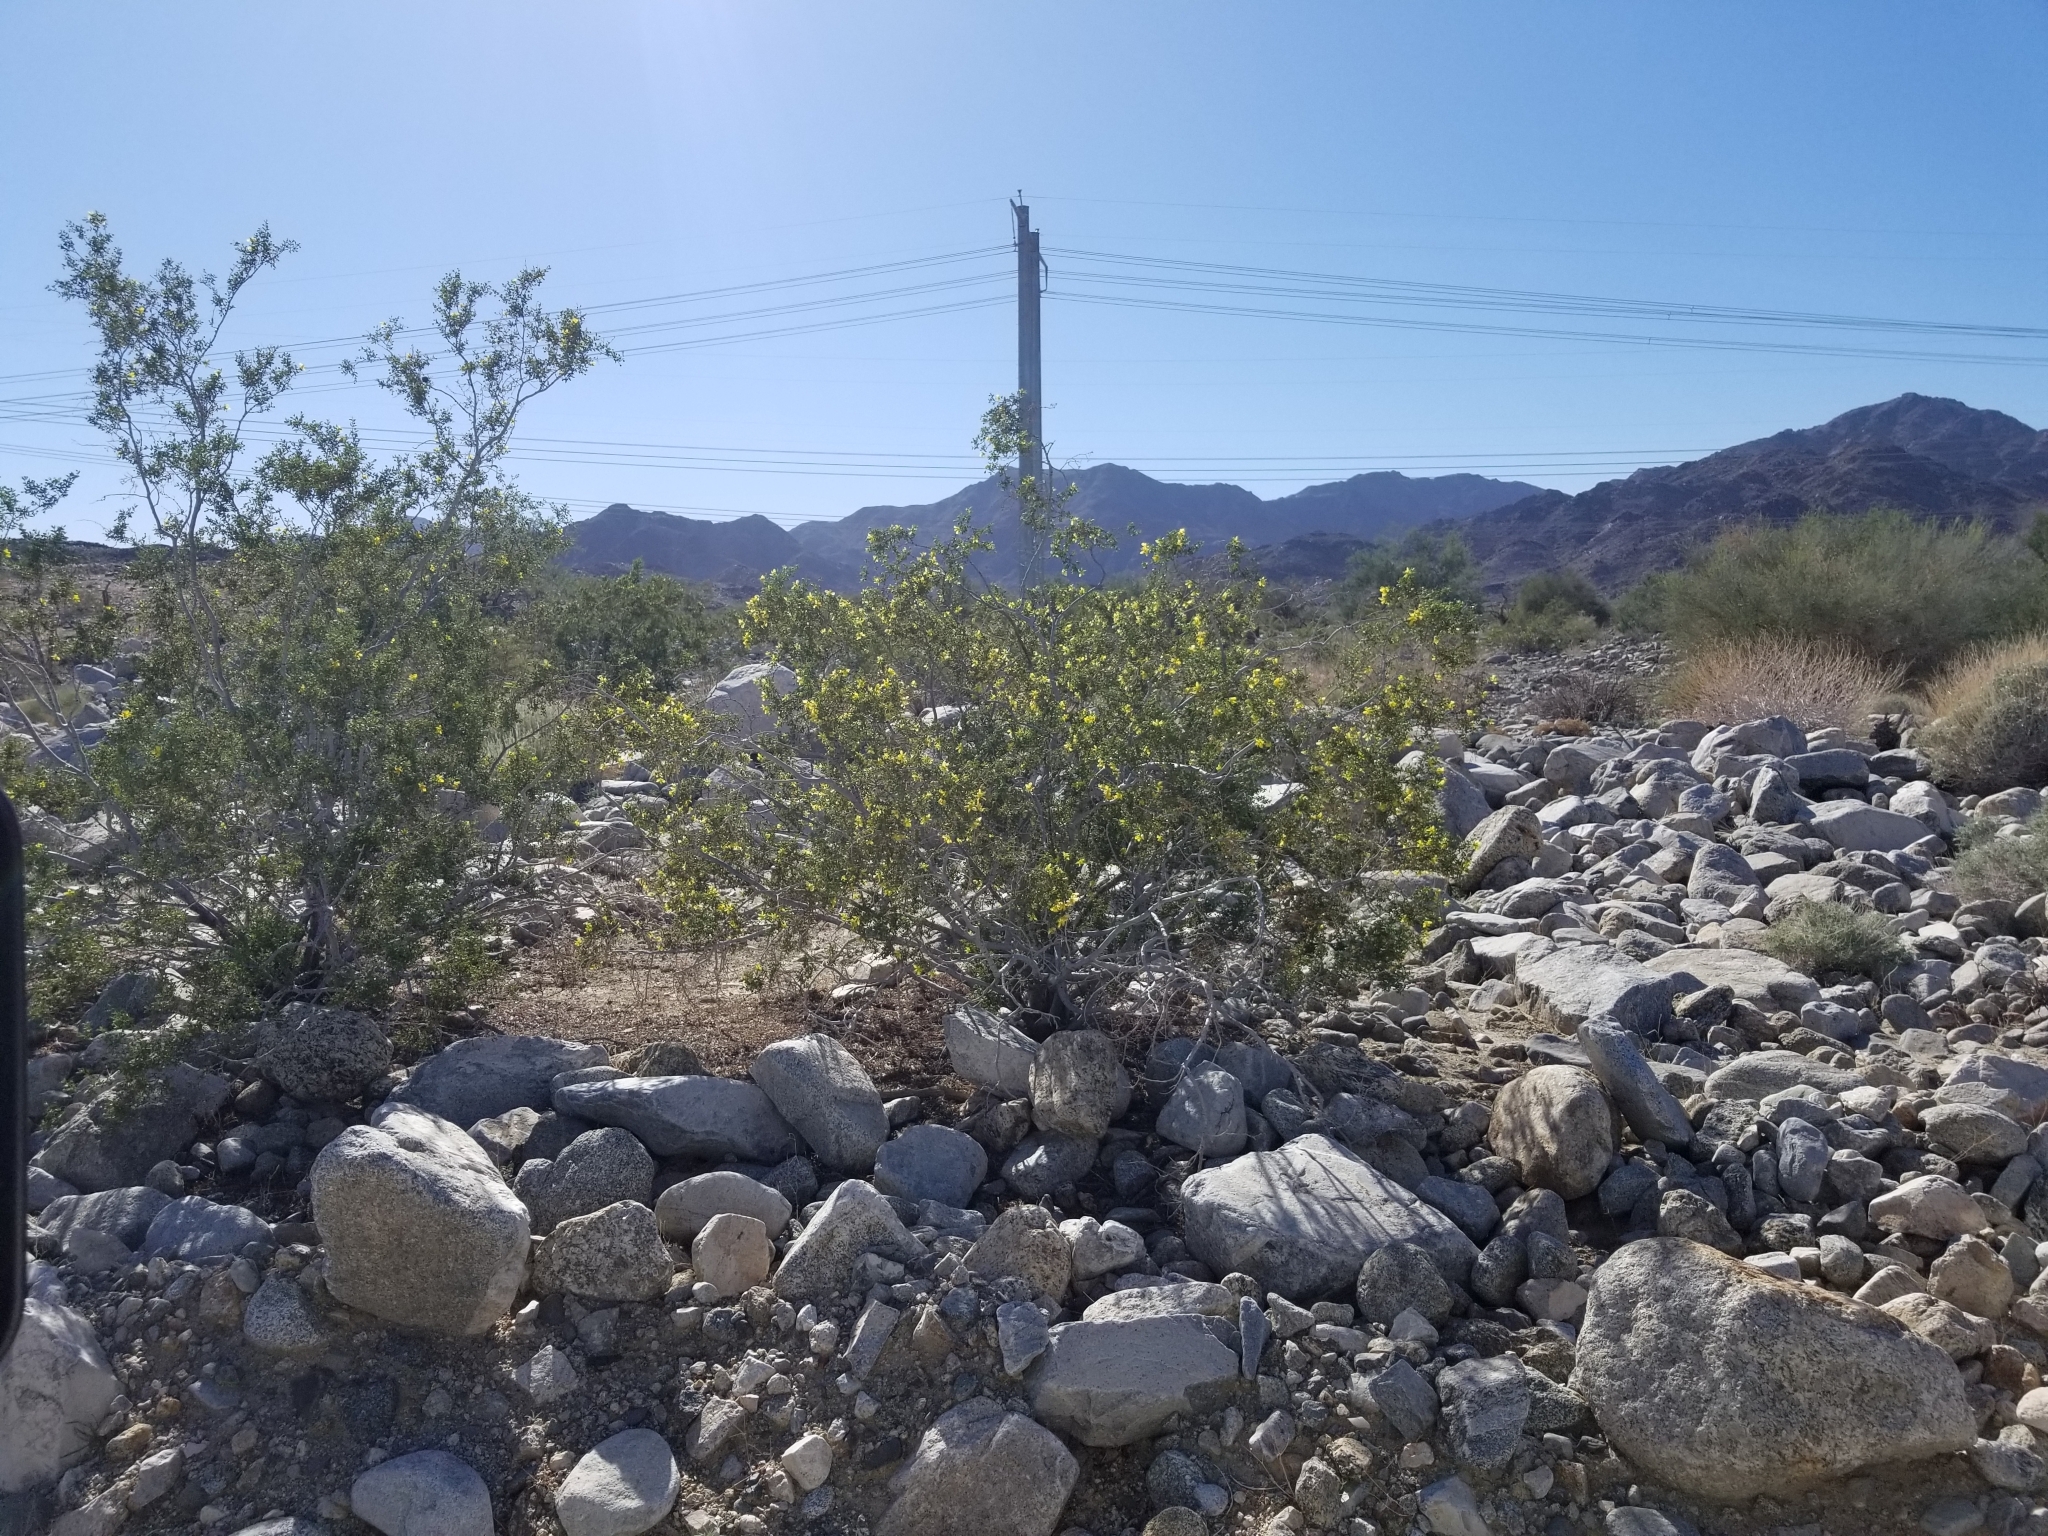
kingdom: Plantae
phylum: Tracheophyta
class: Magnoliopsida
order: Zygophyllales
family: Zygophyllaceae
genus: Larrea
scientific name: Larrea tridentata
